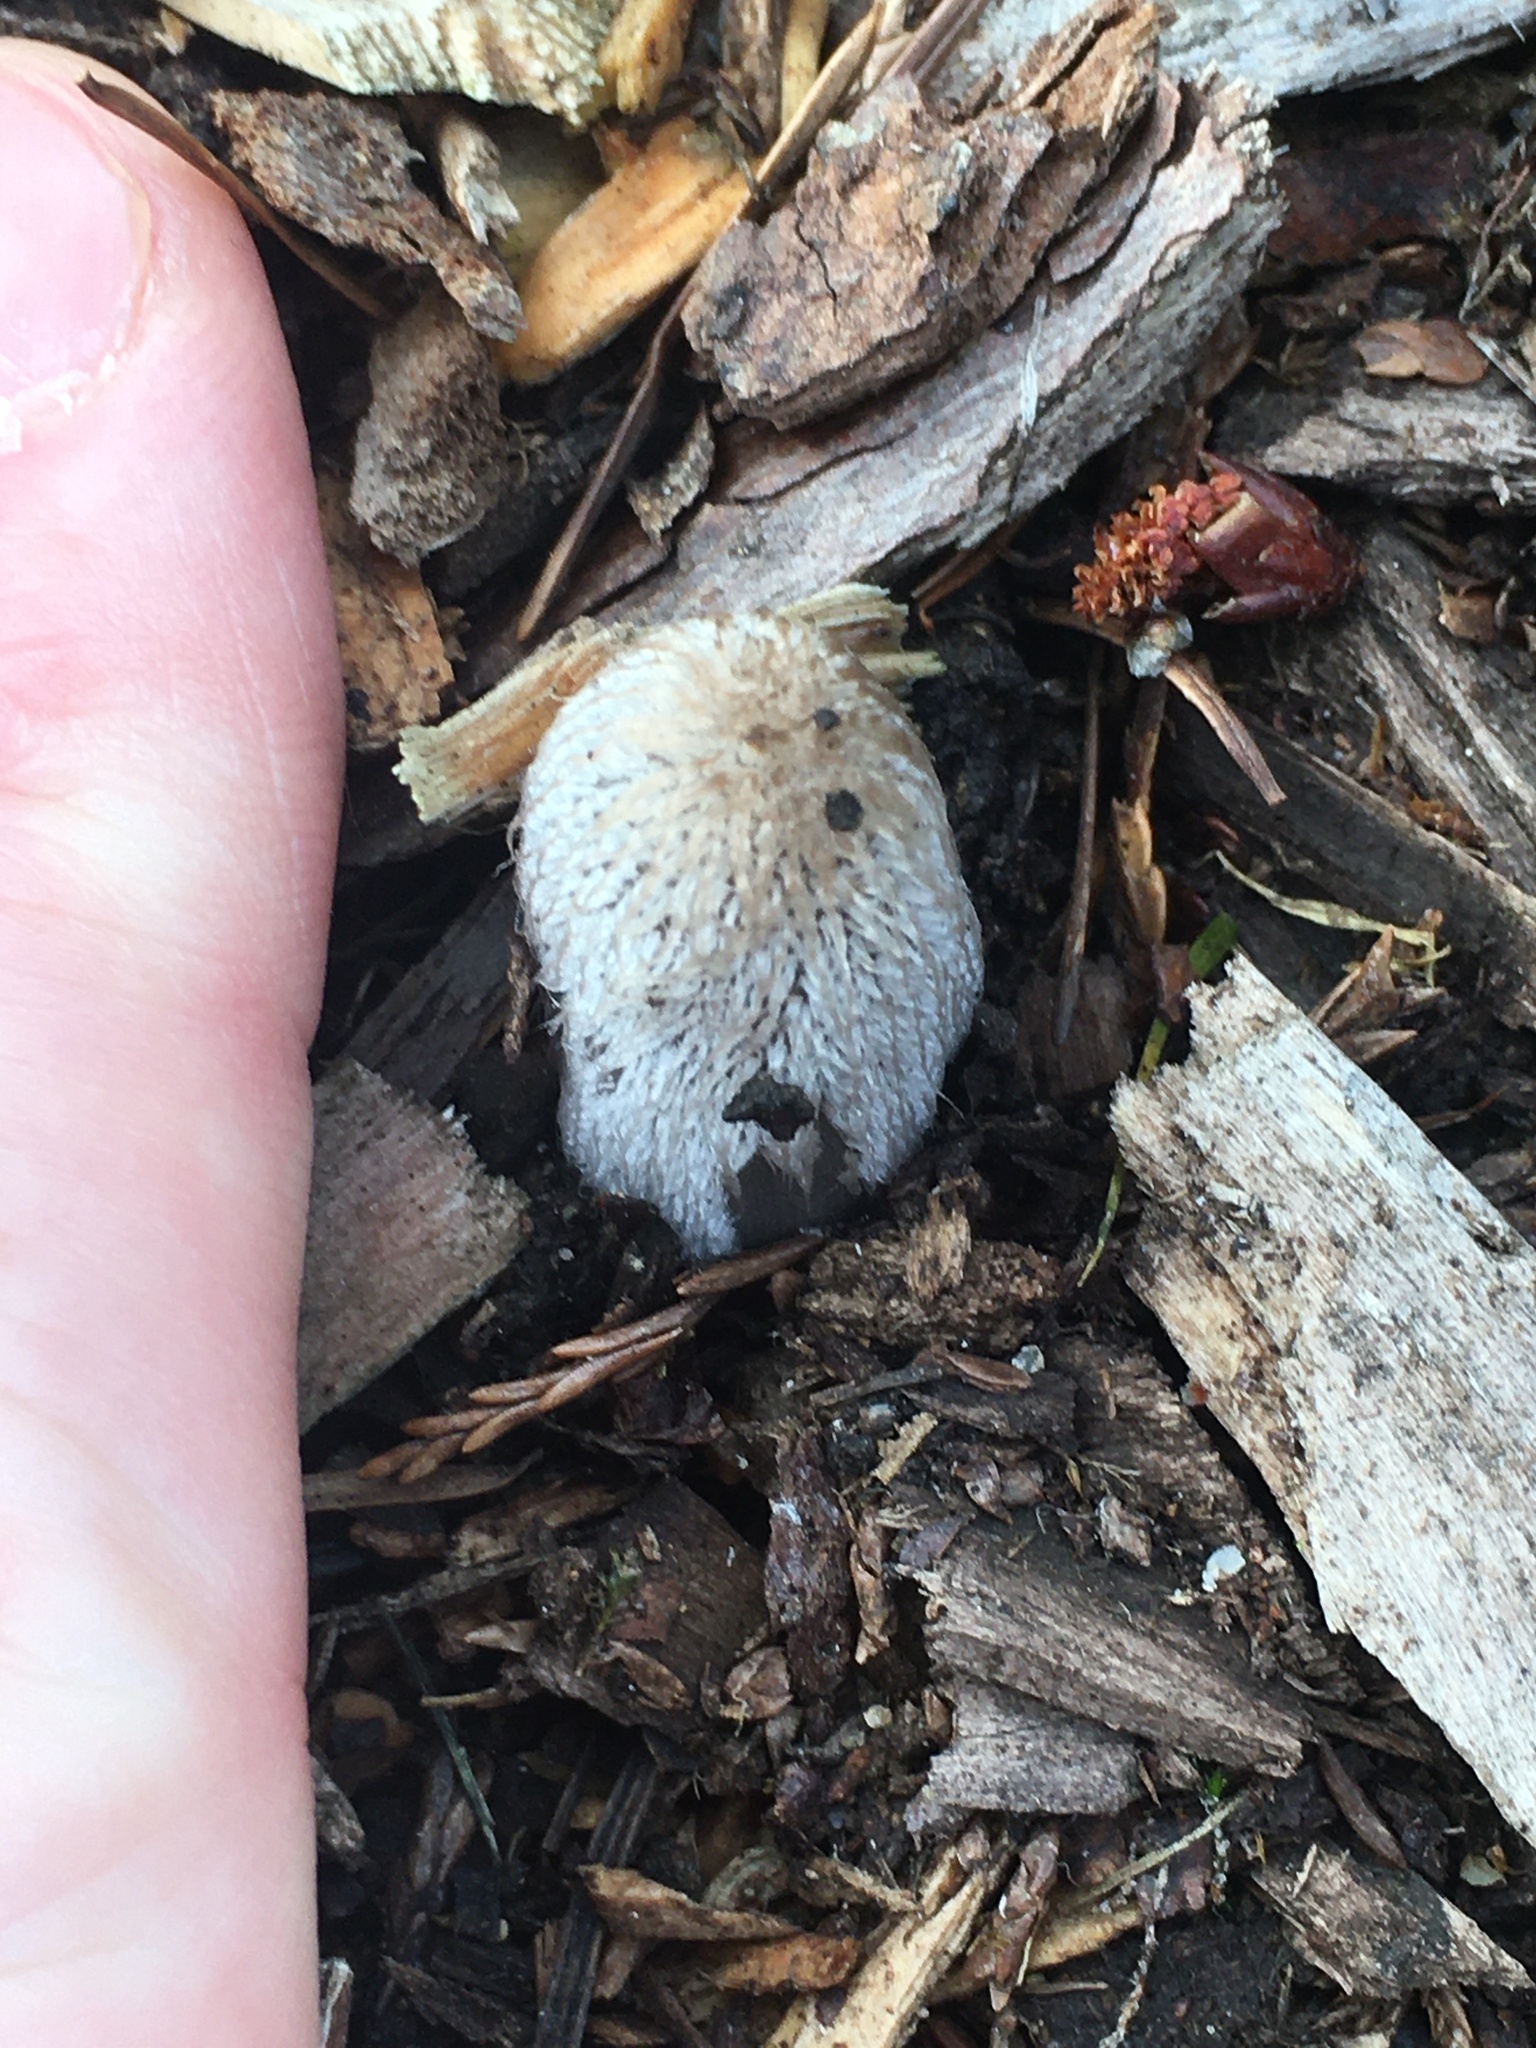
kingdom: Fungi
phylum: Basidiomycota
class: Agaricomycetes
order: Agaricales
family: Psathyrellaceae
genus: Coprinopsis
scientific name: Coprinopsis lagopus
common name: Hare'sfoot inkcap
